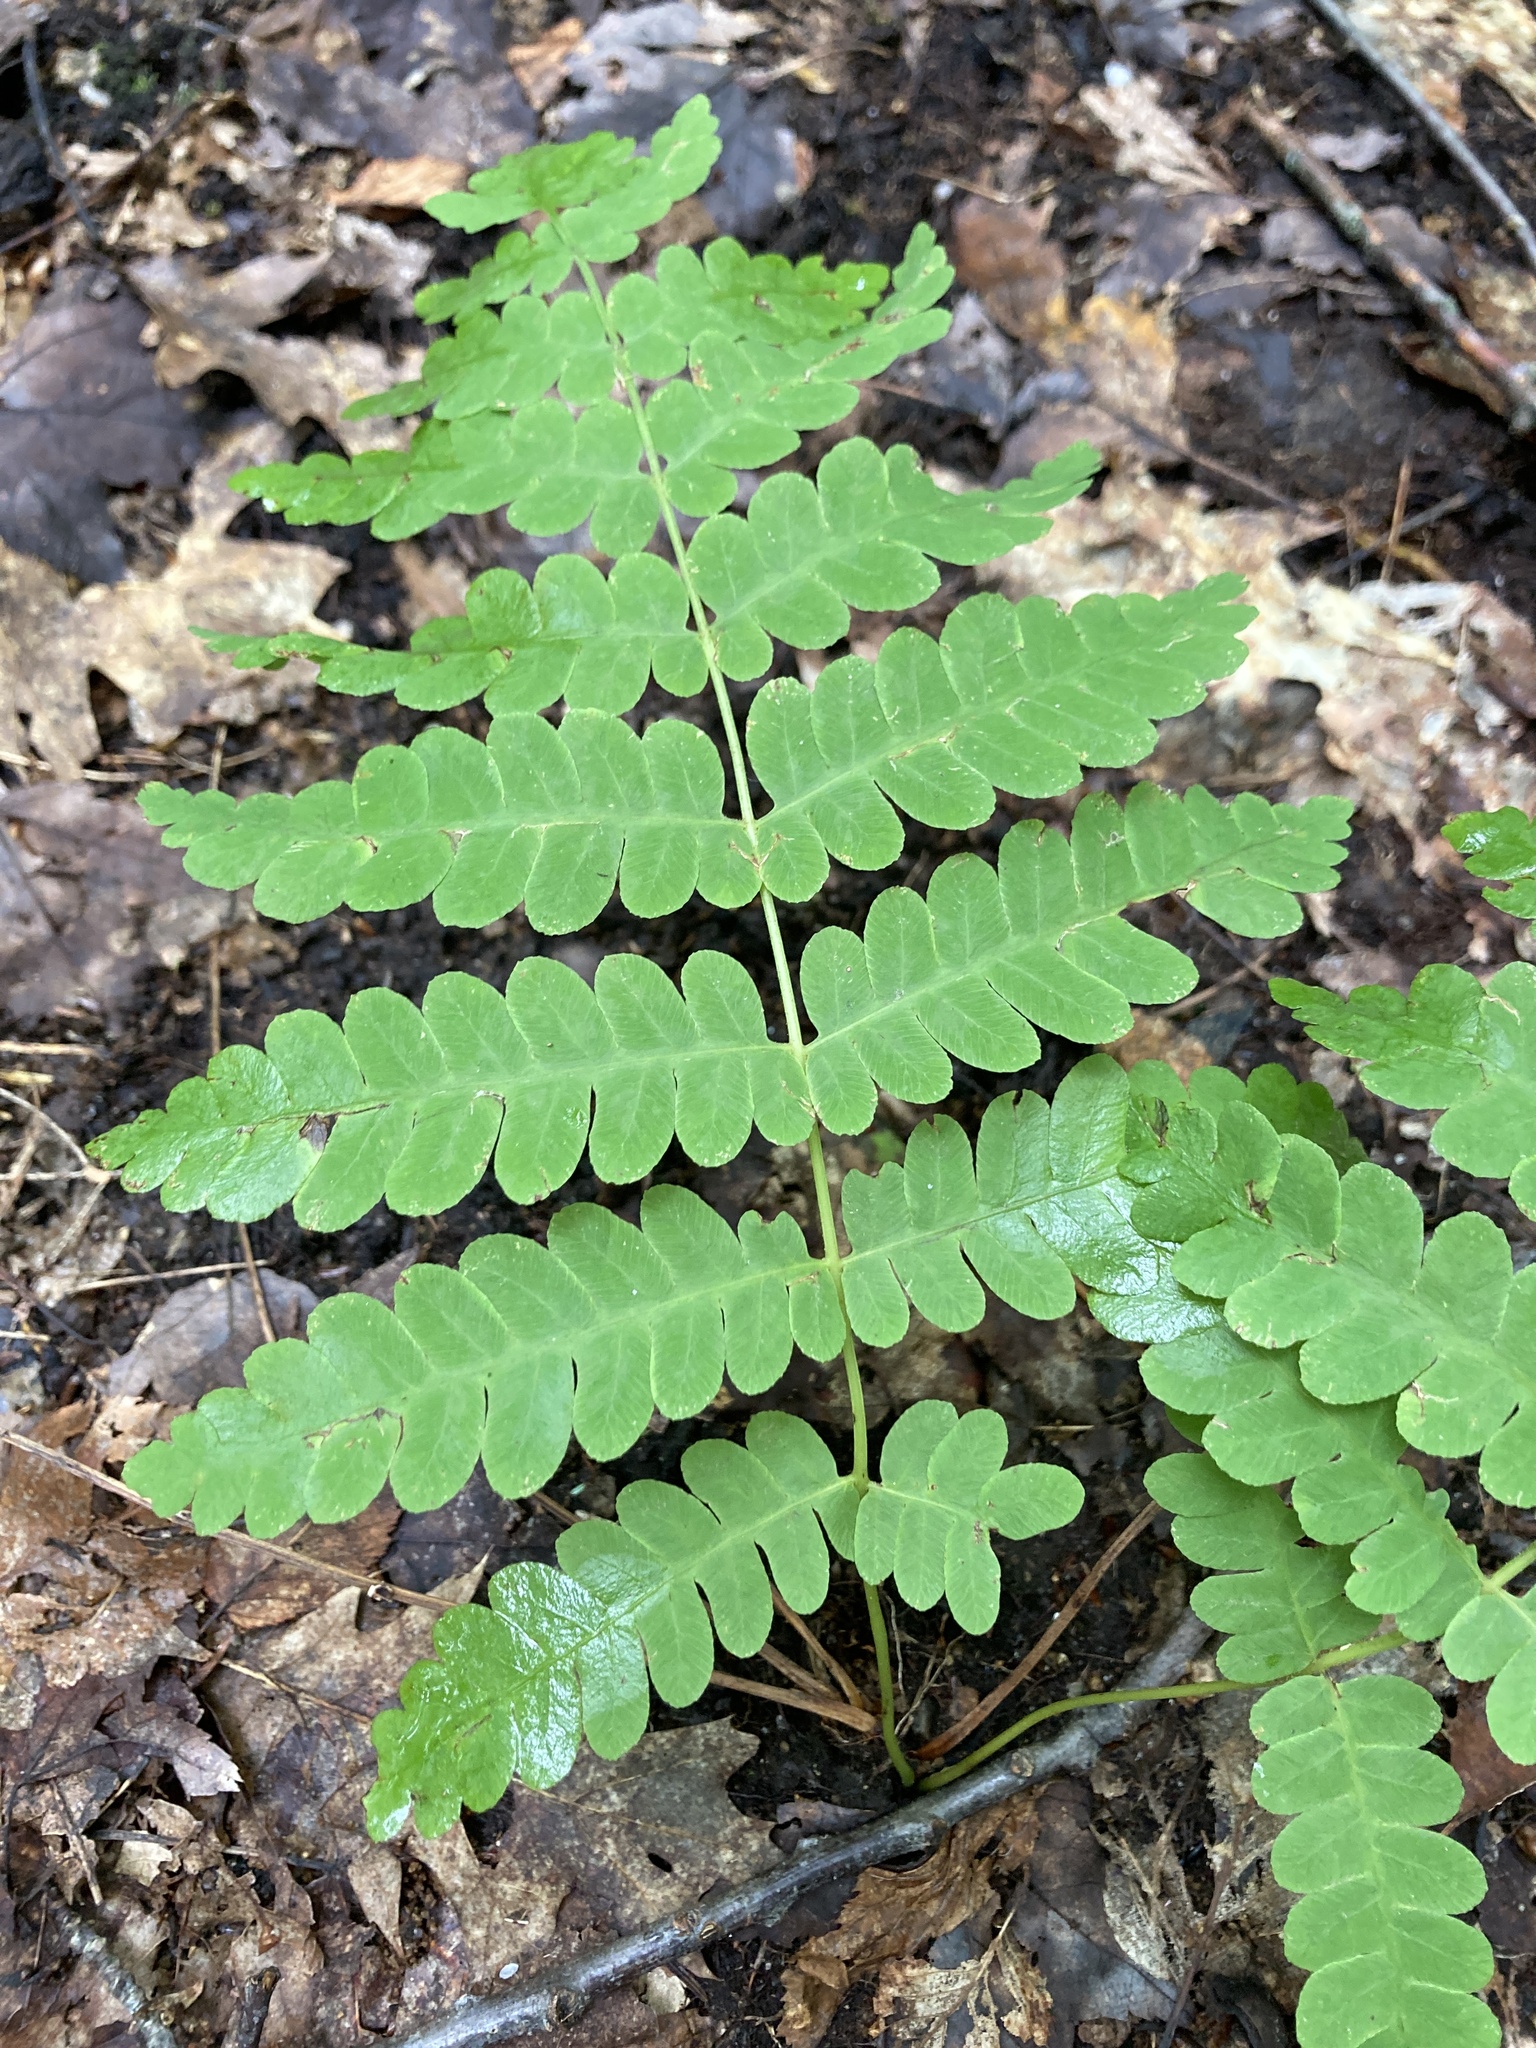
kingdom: Plantae
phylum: Tracheophyta
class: Polypodiopsida
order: Osmundales
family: Osmundaceae
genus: Claytosmunda
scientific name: Claytosmunda claytoniana
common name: Clayton's fern
